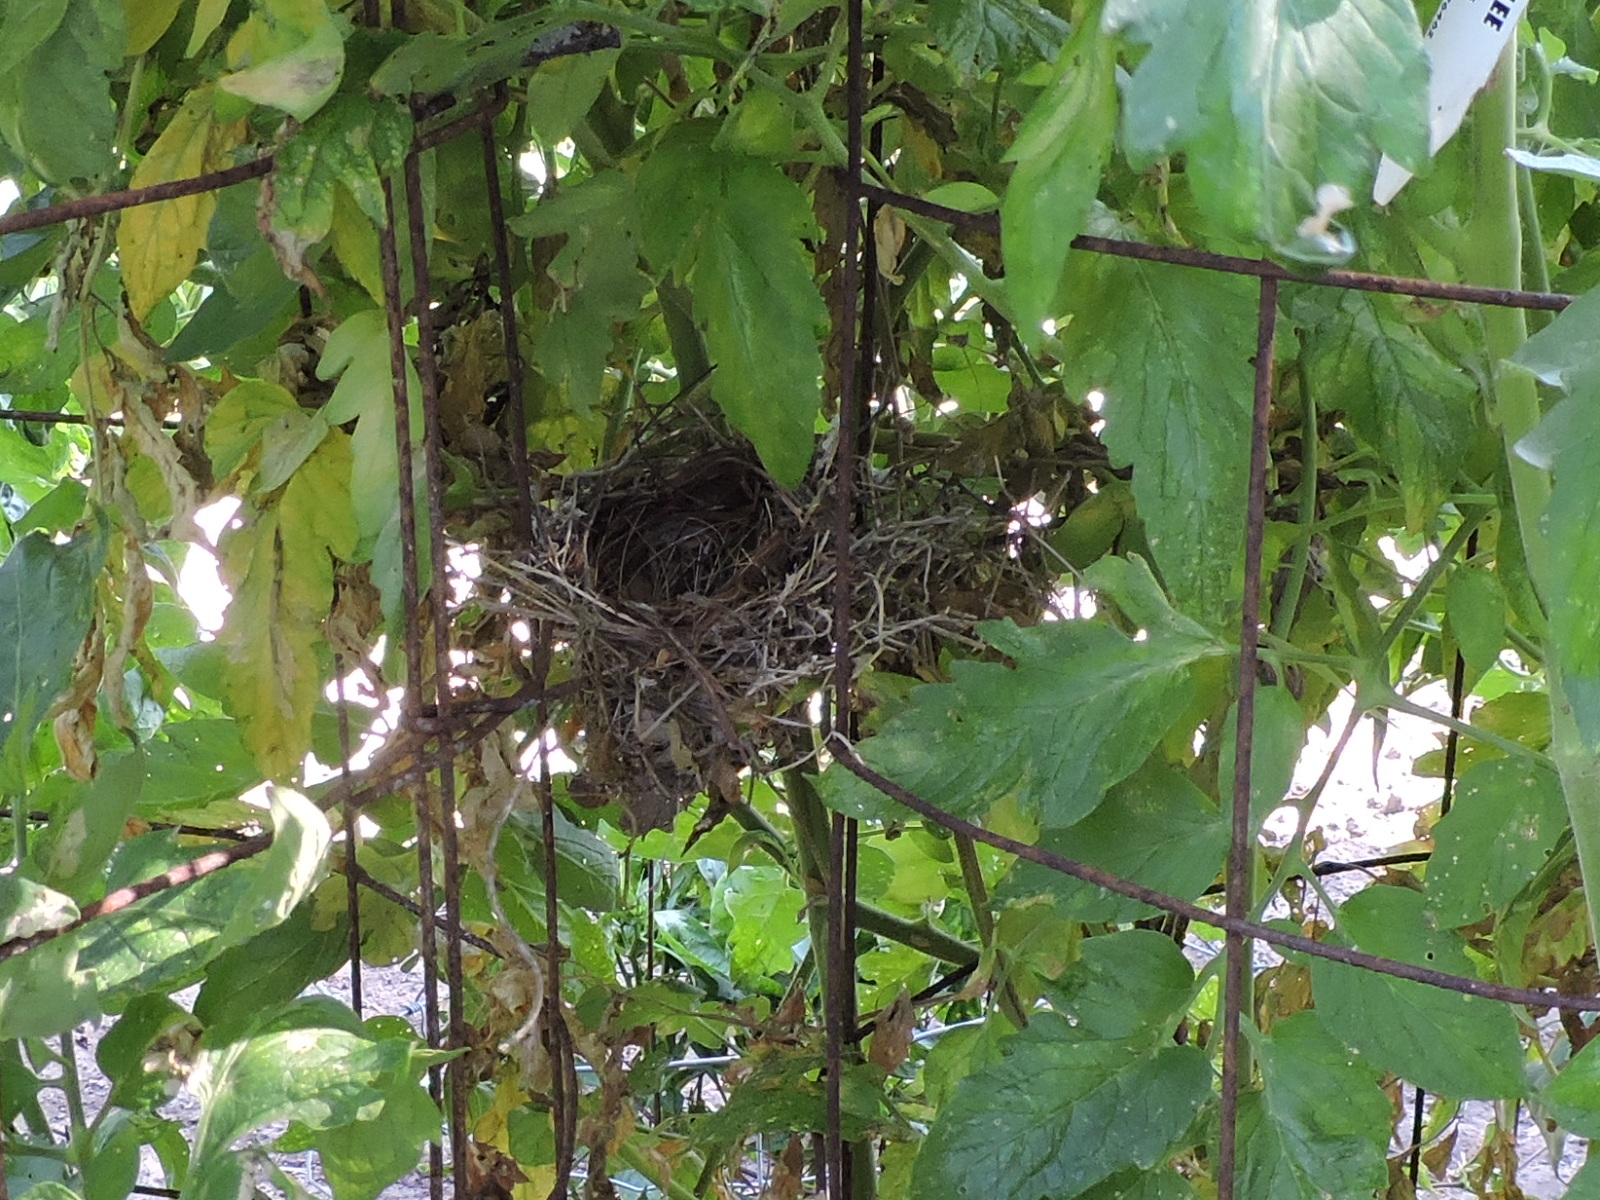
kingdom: Animalia
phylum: Chordata
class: Aves
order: Passeriformes
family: Cardinalidae
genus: Cardinalis
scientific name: Cardinalis cardinalis
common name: Northern cardinal
